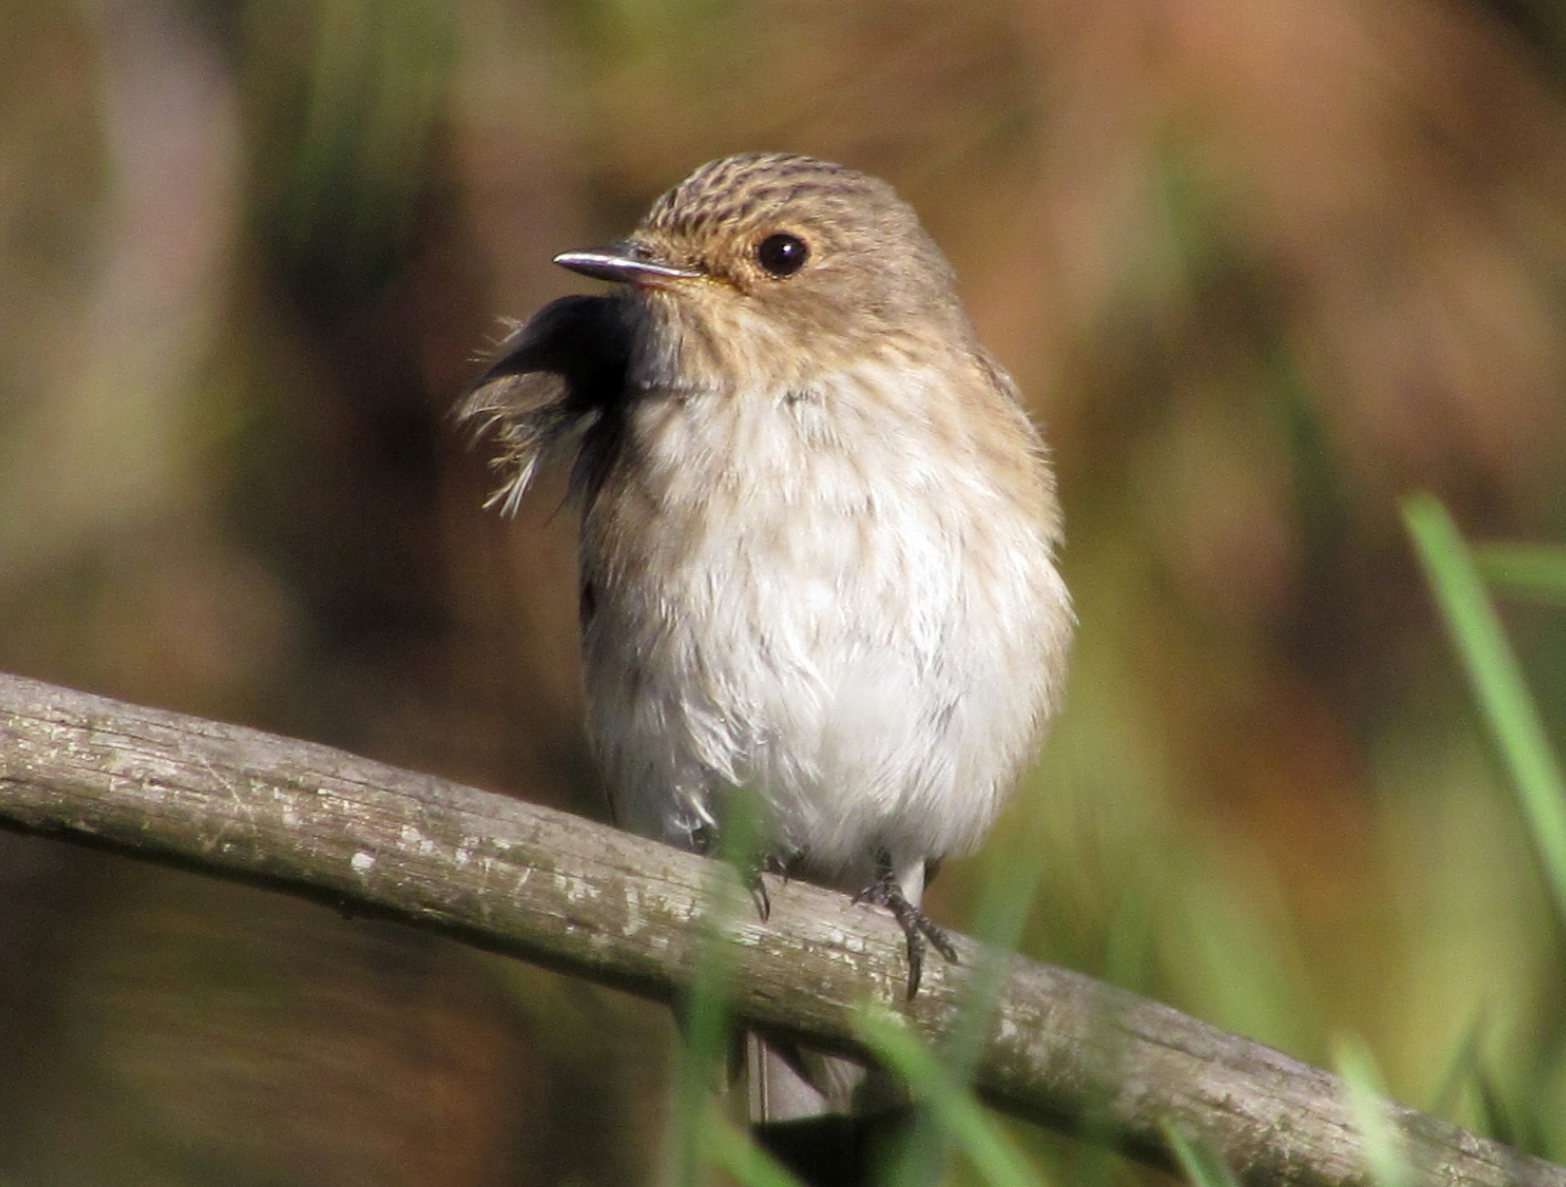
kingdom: Animalia
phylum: Chordata
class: Aves
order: Passeriformes
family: Muscicapidae
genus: Muscicapa
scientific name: Muscicapa striata
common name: Spotted flycatcher
